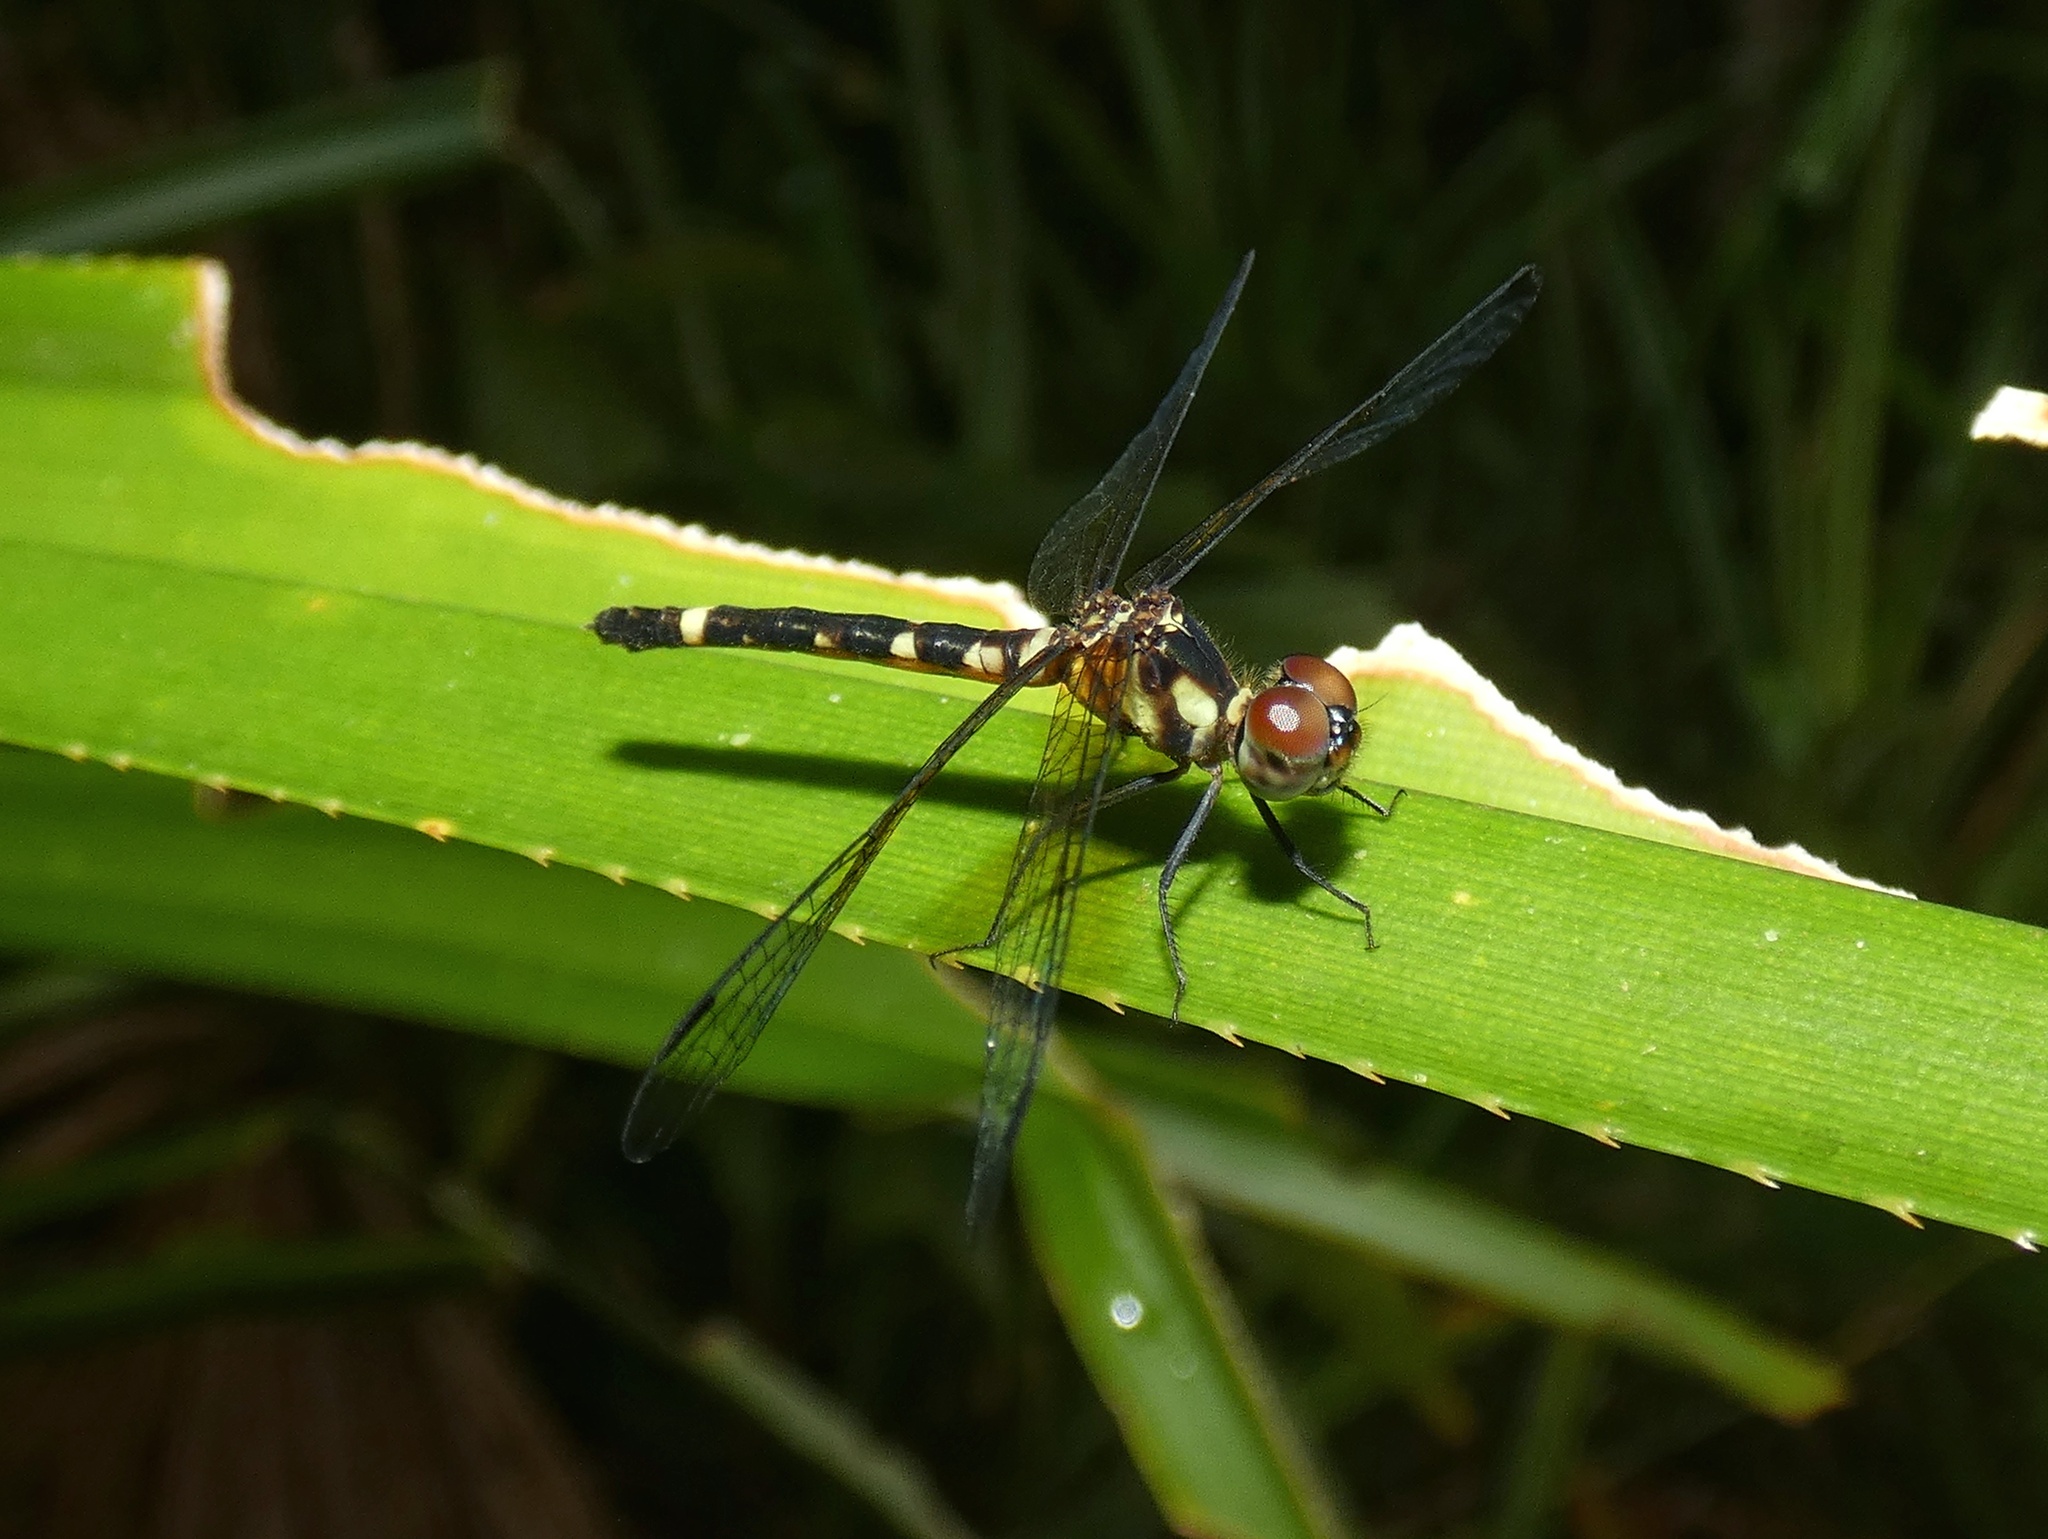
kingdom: Animalia
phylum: Arthropoda
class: Insecta
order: Odonata
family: Libellulidae
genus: Tetrathemis
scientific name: Tetrathemis irregularis
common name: Elf
